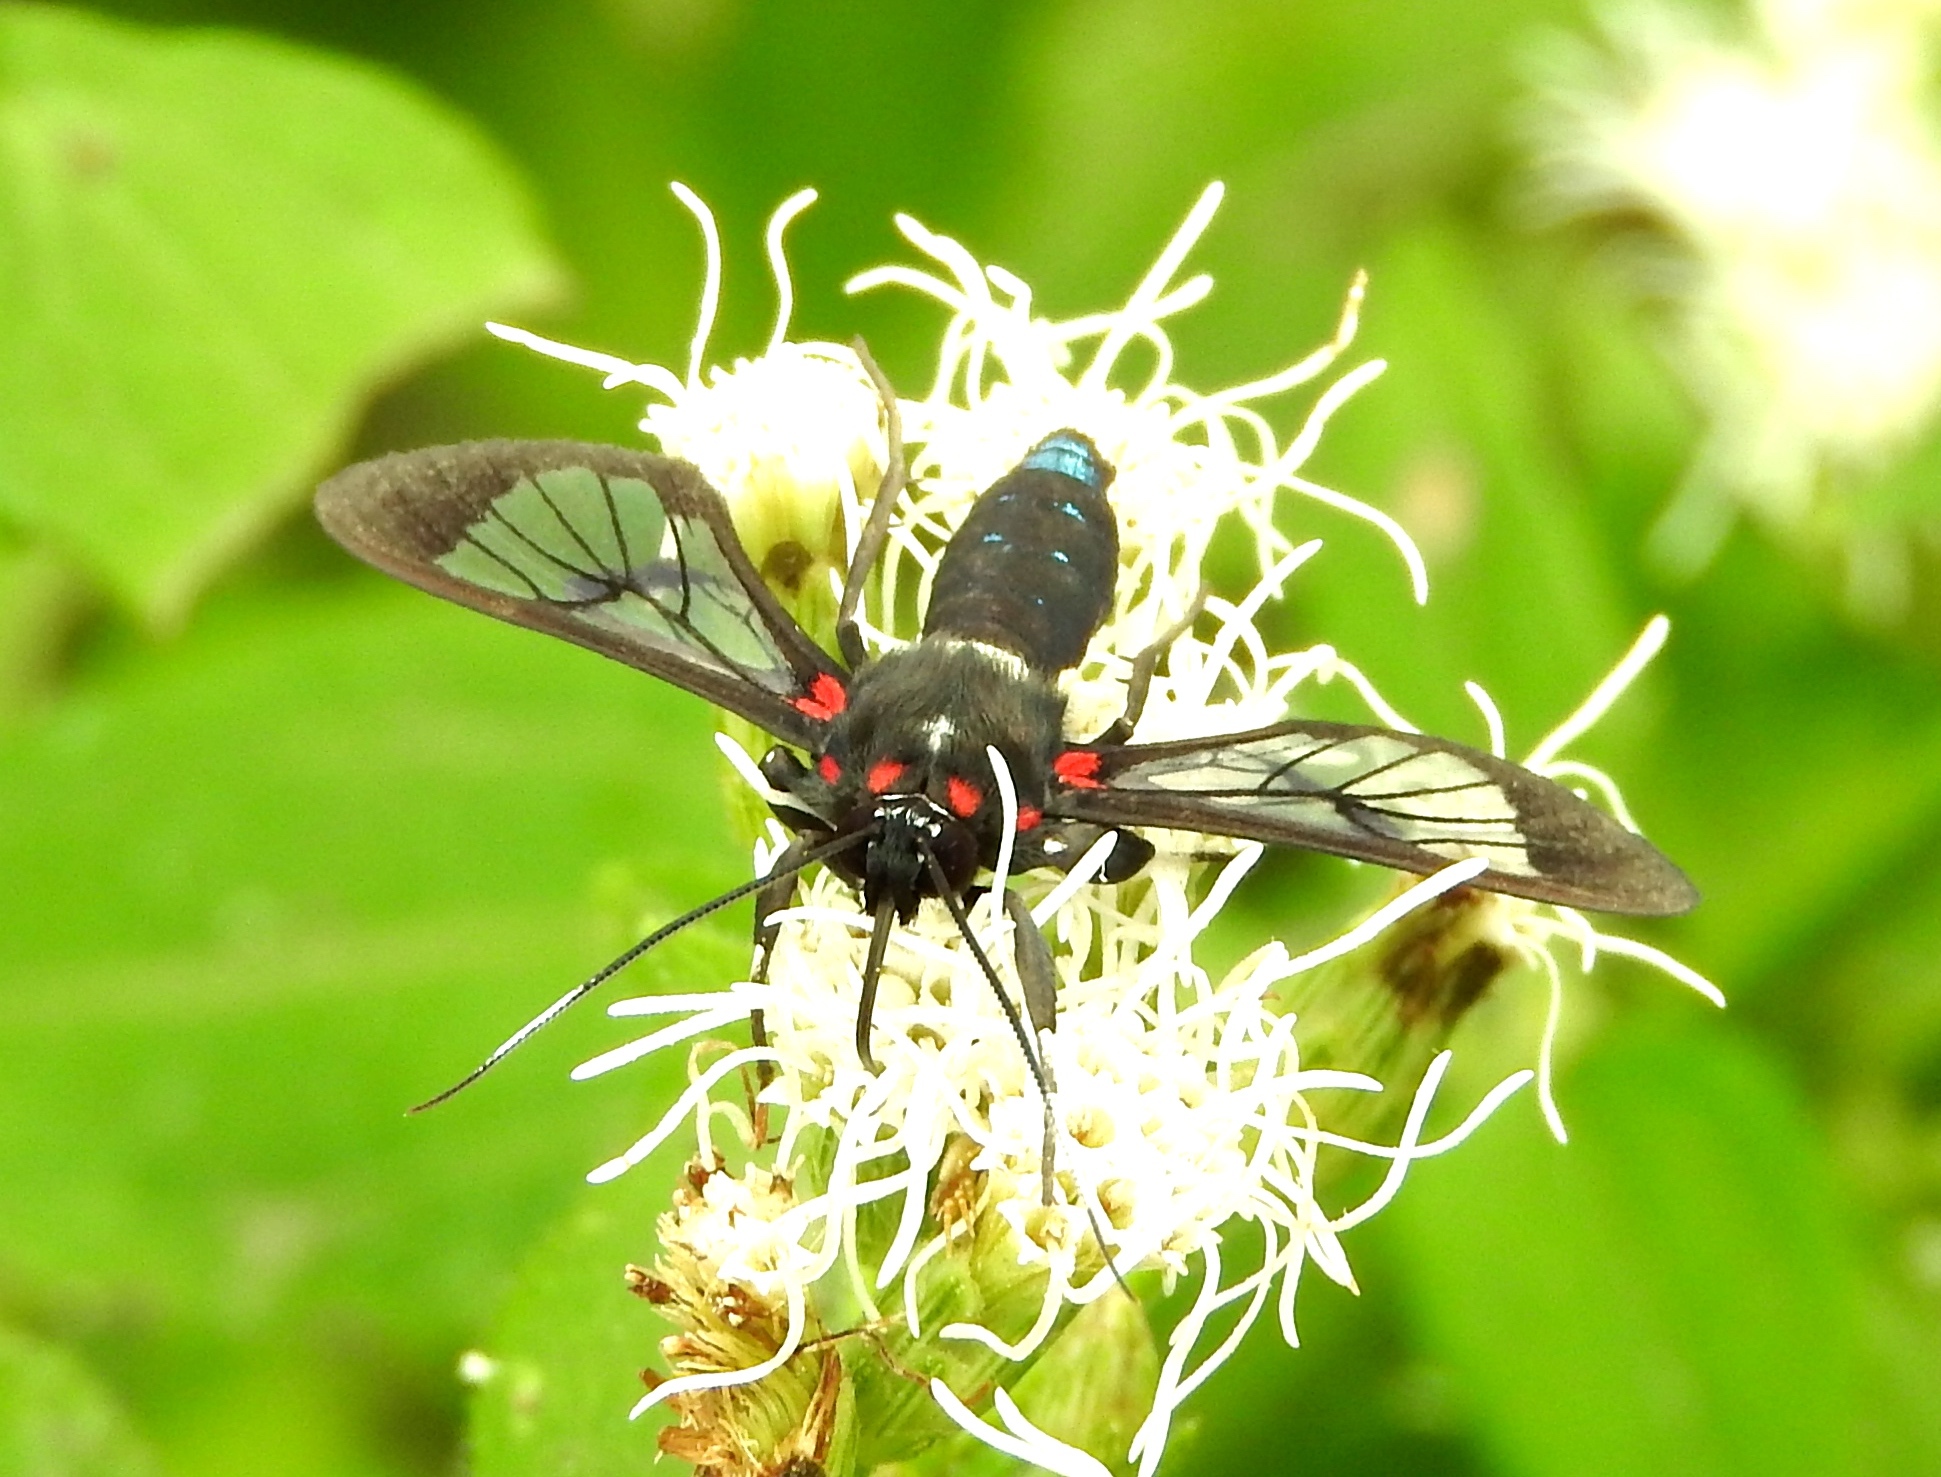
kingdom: Animalia
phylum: Arthropoda
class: Insecta
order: Lepidoptera
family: Erebidae
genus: Pheia
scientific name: Pheia albisigna
